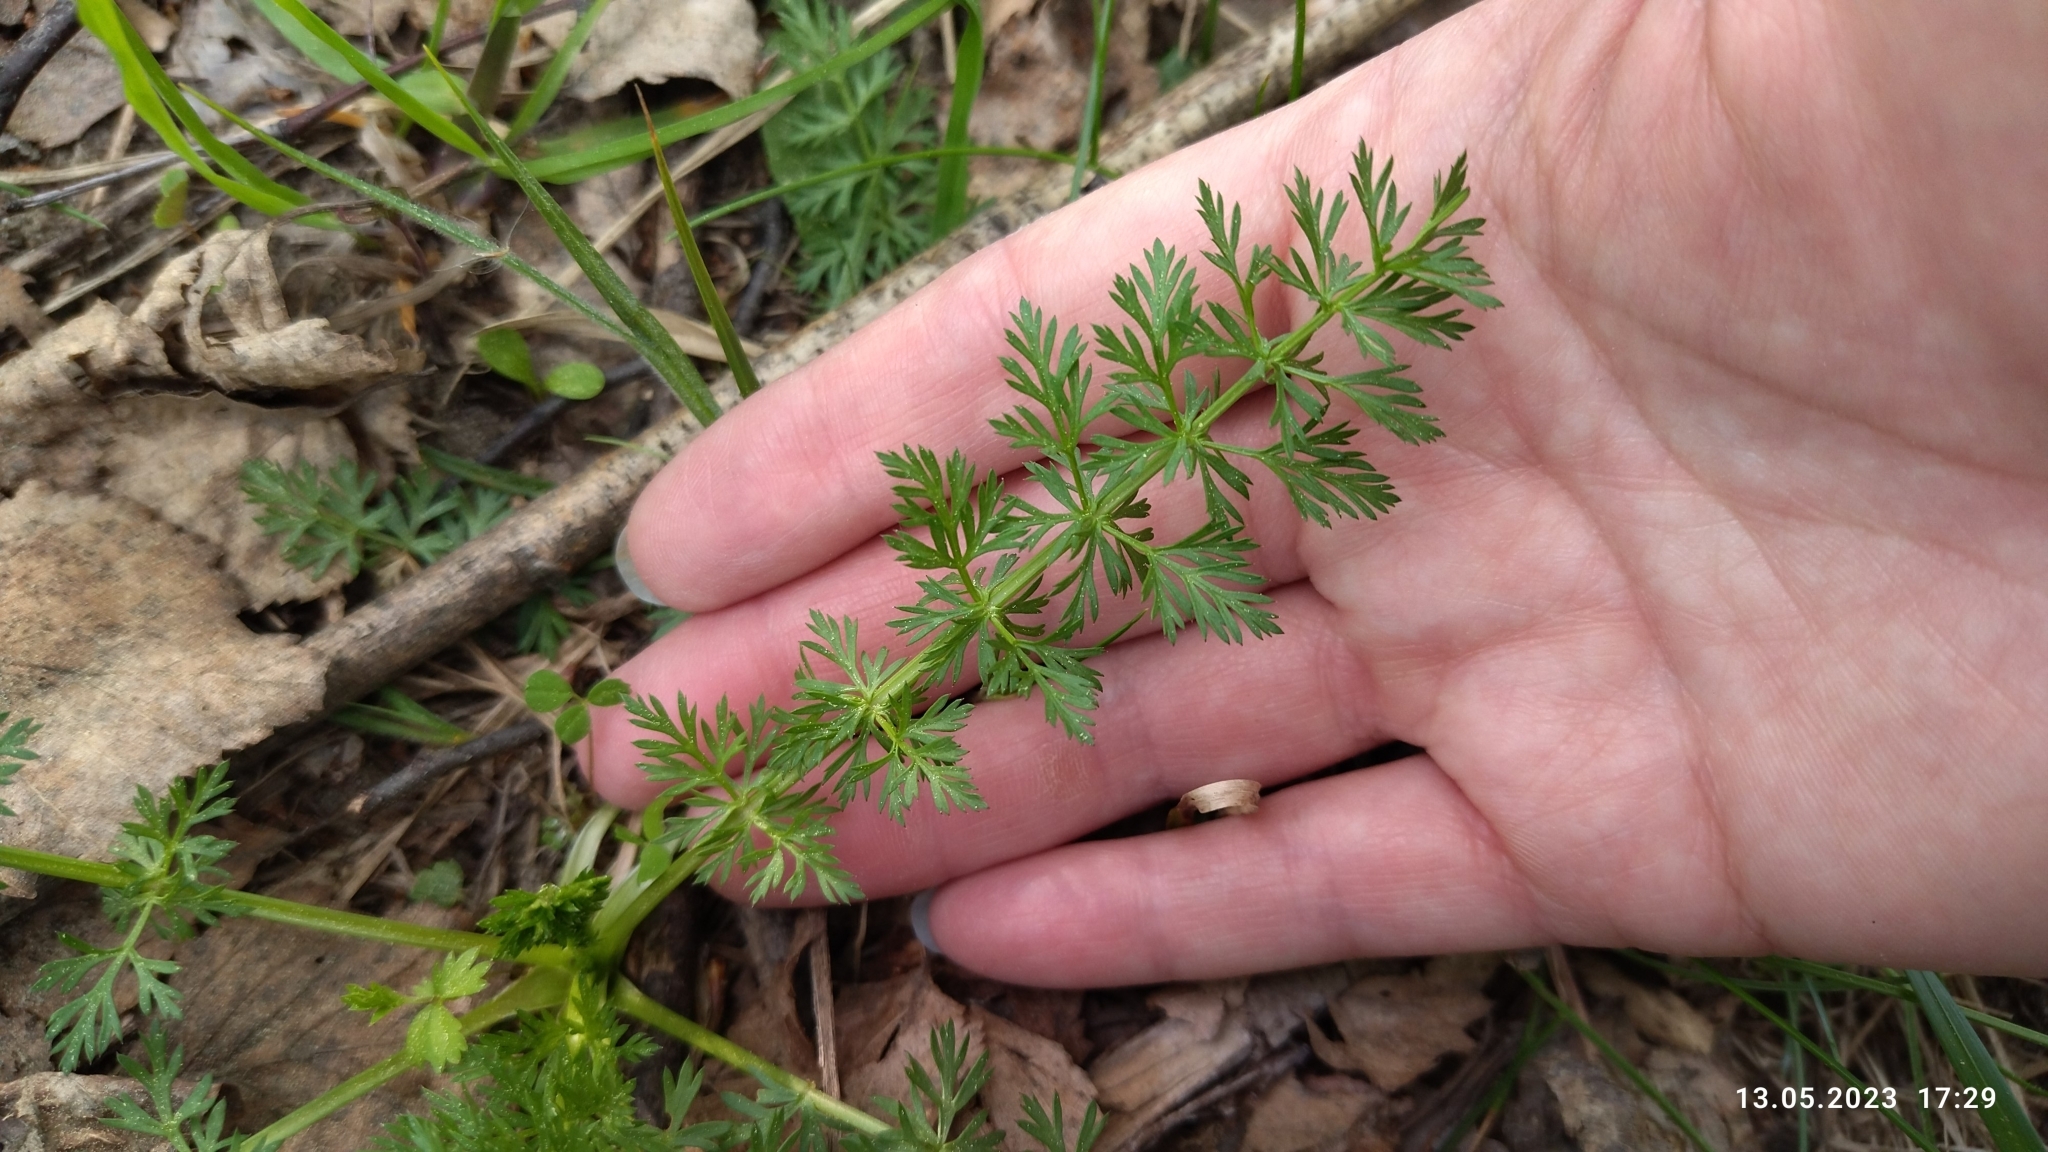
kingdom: Plantae
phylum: Tracheophyta
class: Magnoliopsida
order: Apiales
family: Apiaceae
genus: Carum
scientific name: Carum carvi
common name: Caraway
